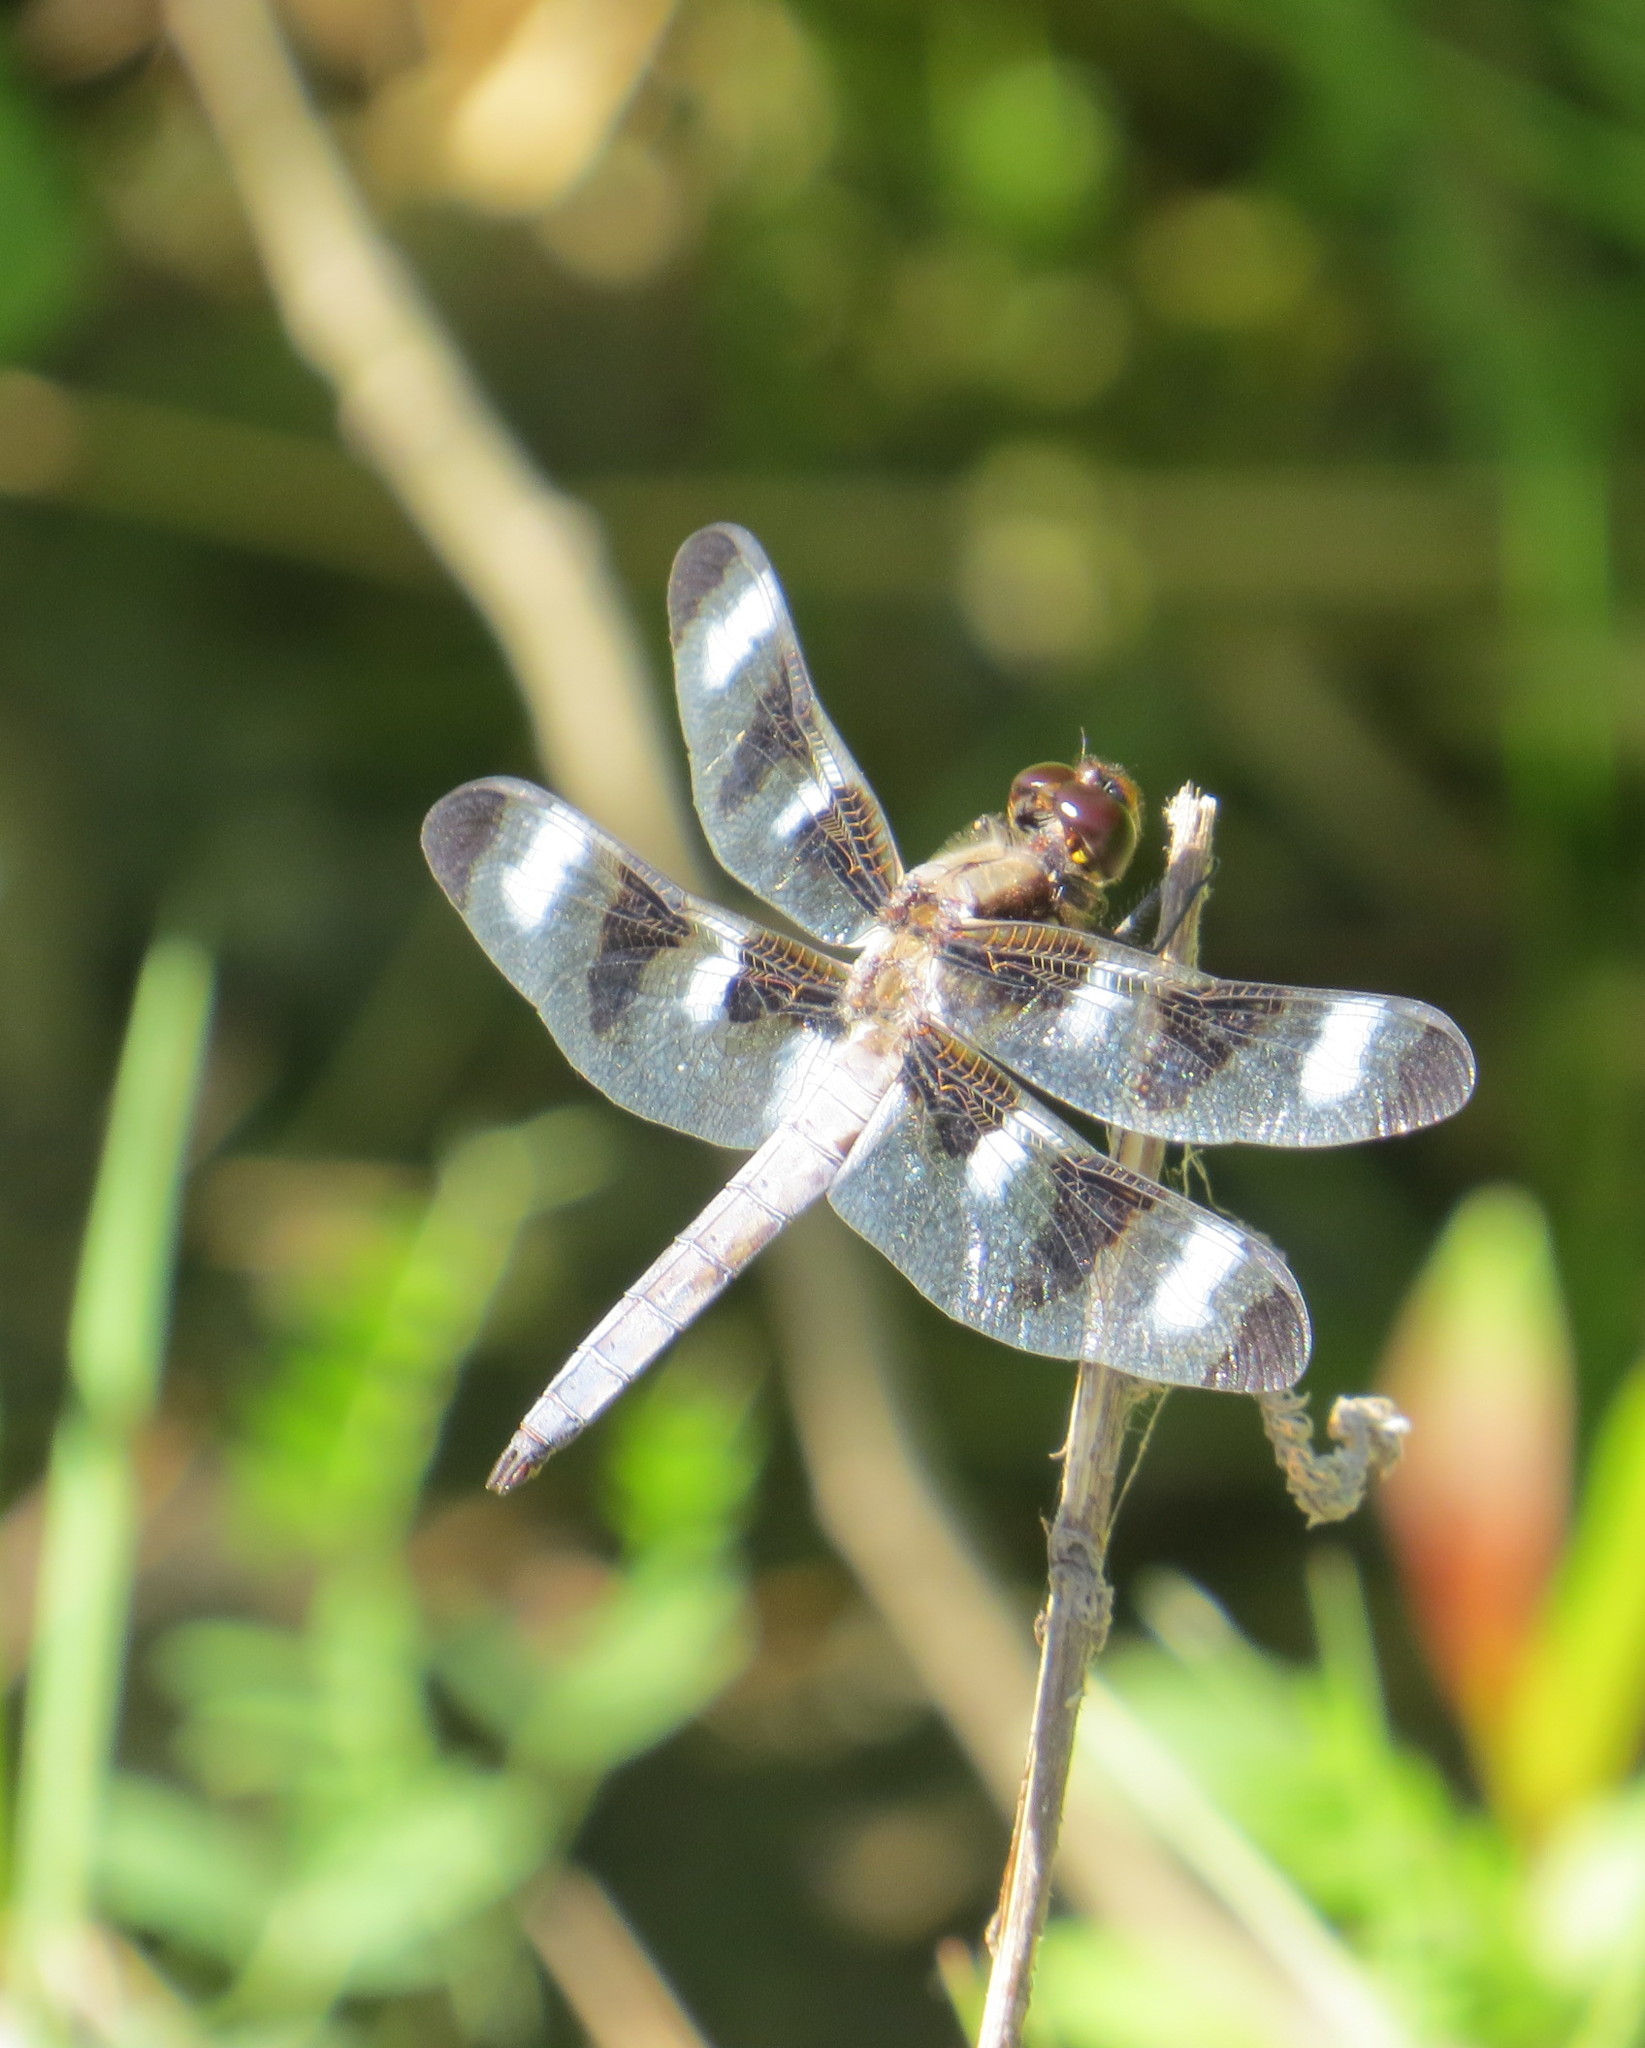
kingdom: Animalia
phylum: Arthropoda
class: Insecta
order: Odonata
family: Libellulidae
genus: Libellula
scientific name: Libellula pulchella
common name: Twelve-spotted skimmer
